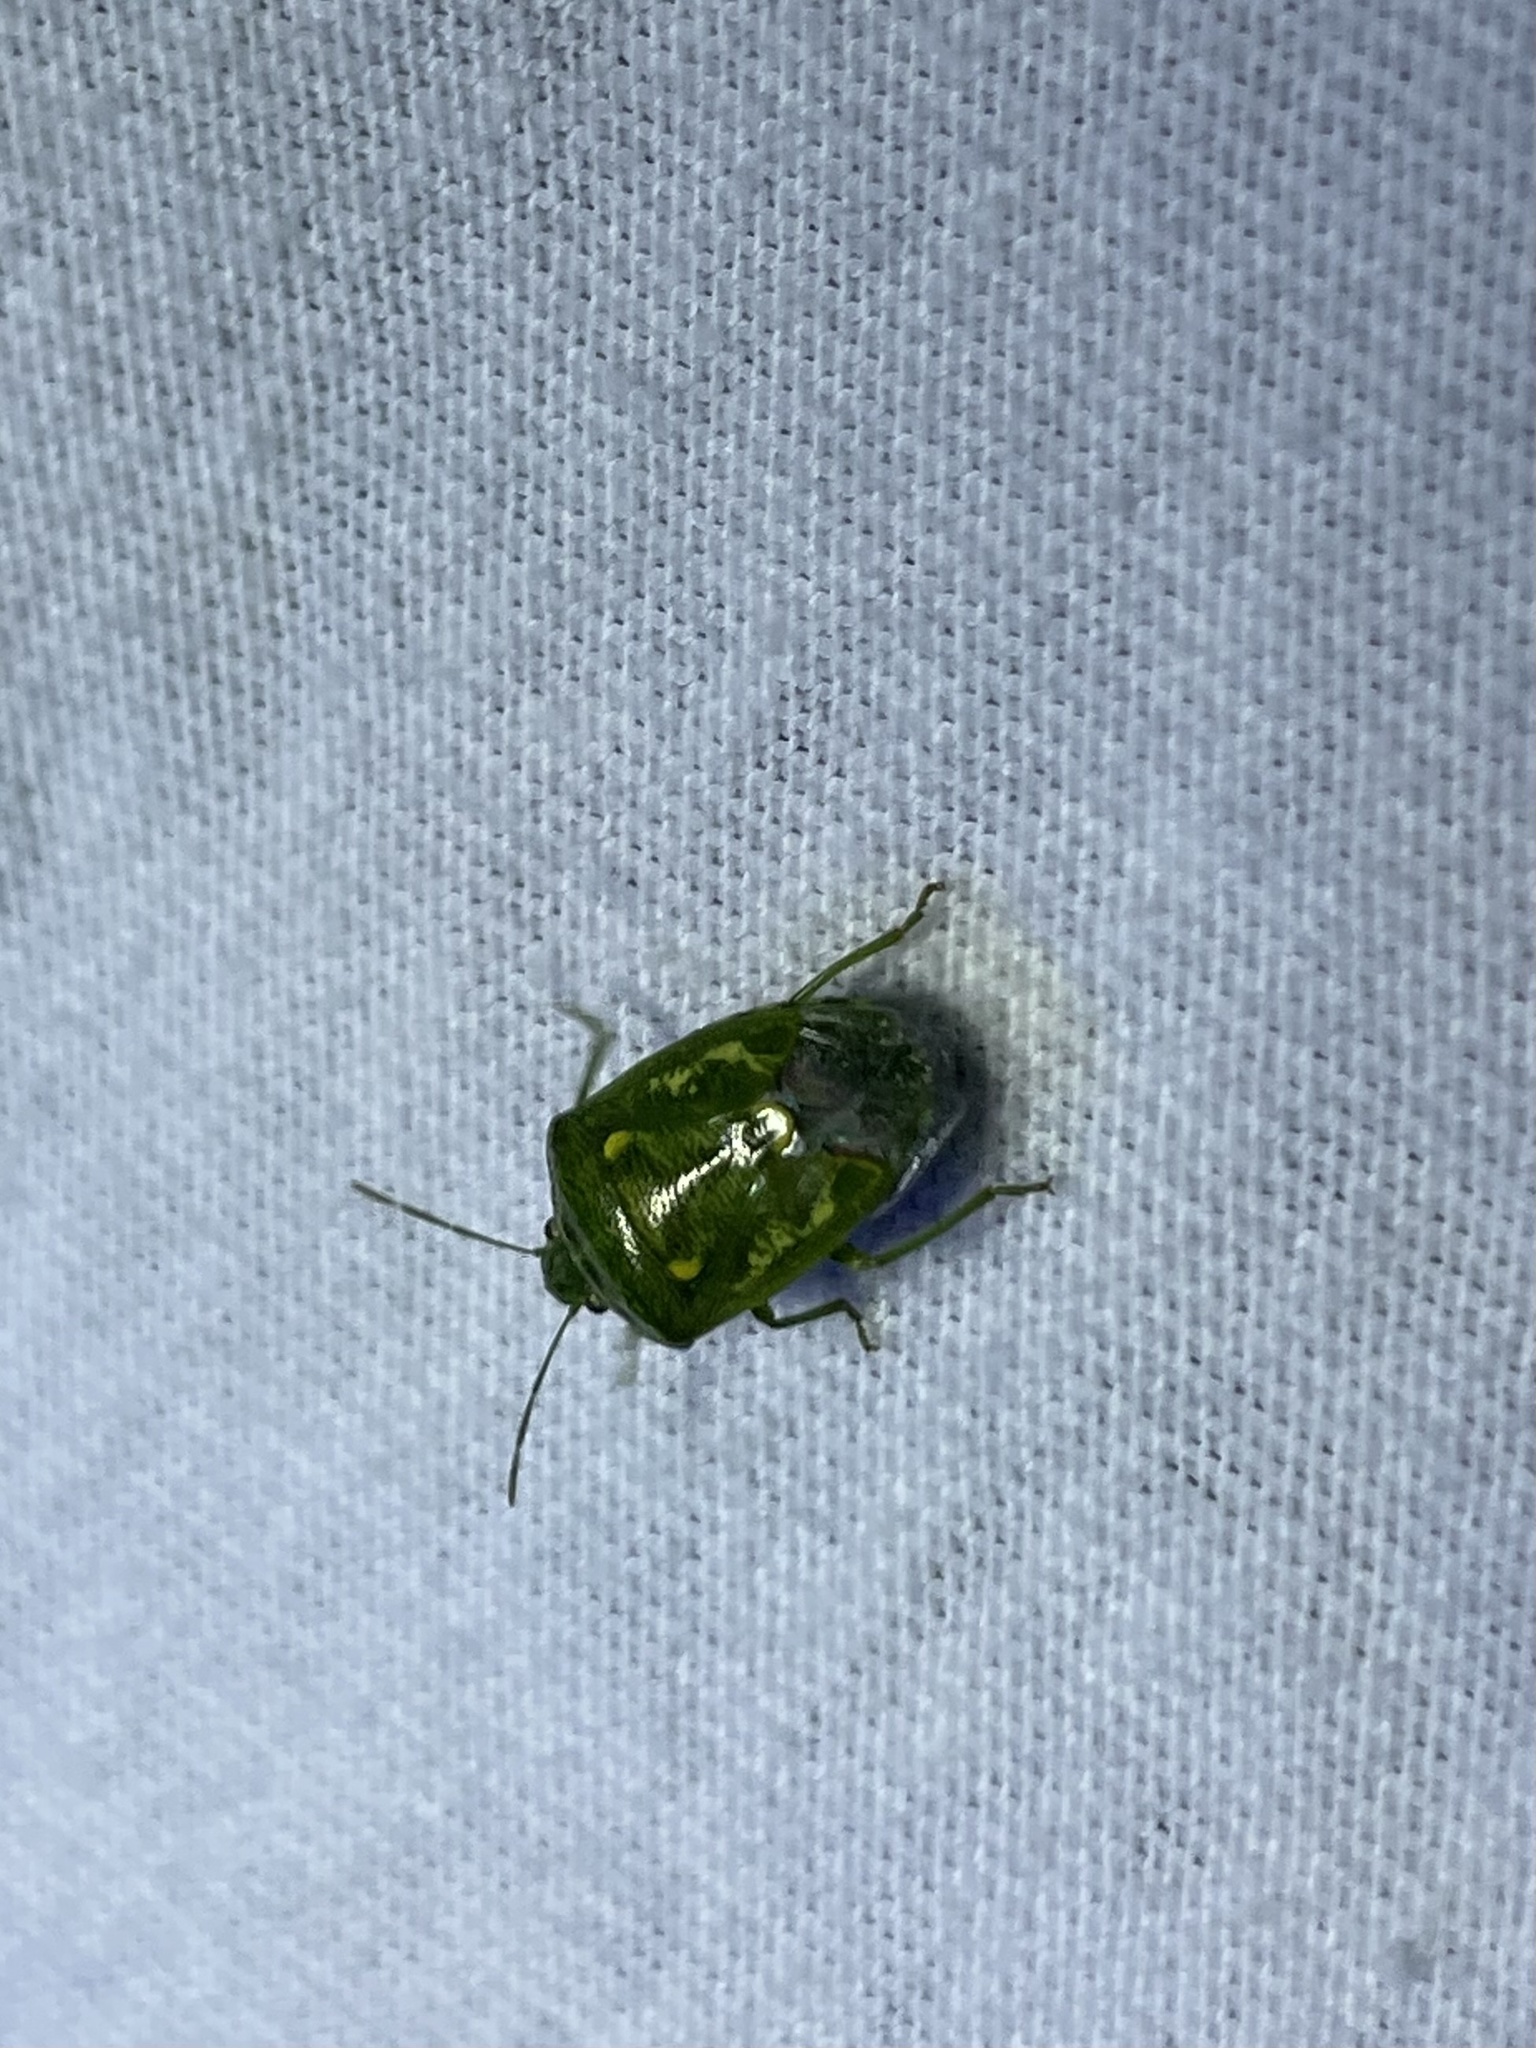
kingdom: Animalia
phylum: Arthropoda
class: Insecta
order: Hemiptera
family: Pentatomidae
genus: Banasa
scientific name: Banasa euchlora
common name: Cedar berry bug
